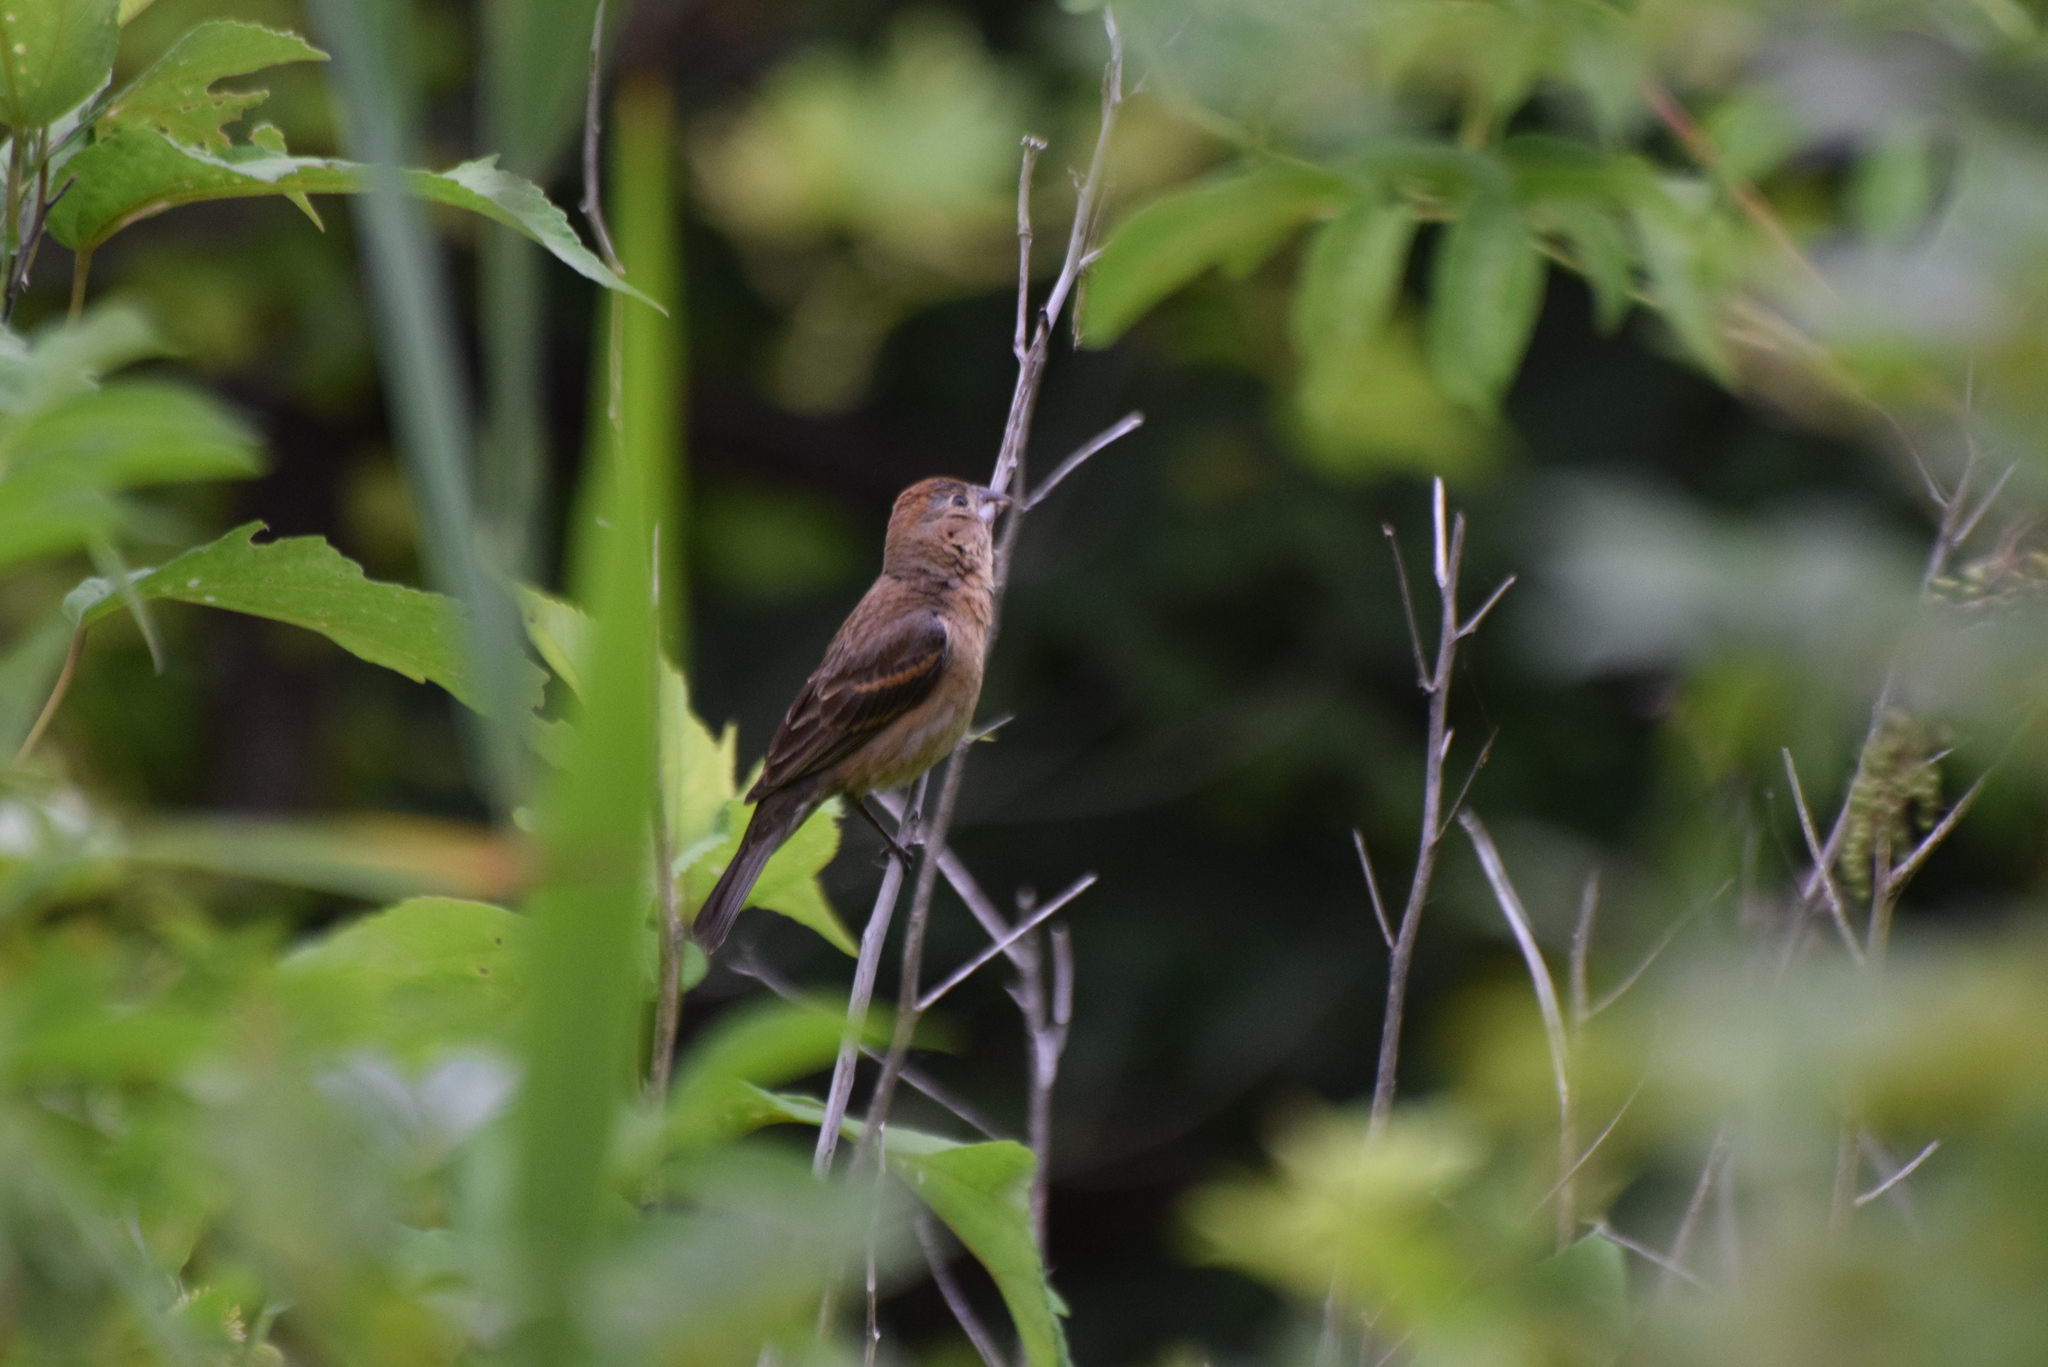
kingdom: Animalia
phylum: Chordata
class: Aves
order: Passeriformes
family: Cardinalidae
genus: Passerina
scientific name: Passerina caerulea
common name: Blue grosbeak
